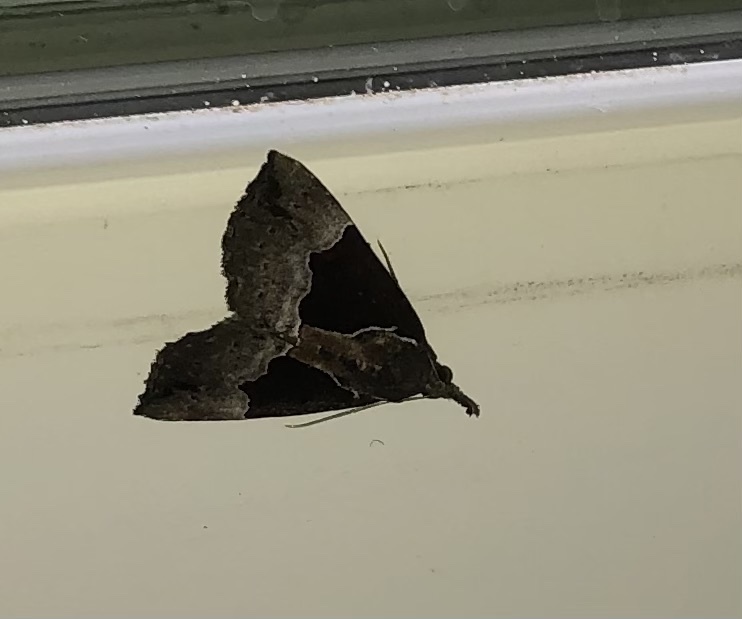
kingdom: Animalia
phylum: Arthropoda
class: Insecta
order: Lepidoptera
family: Erebidae
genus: Hypena
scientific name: Hypena bijugalis
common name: Dimorphic bomolocha moth
